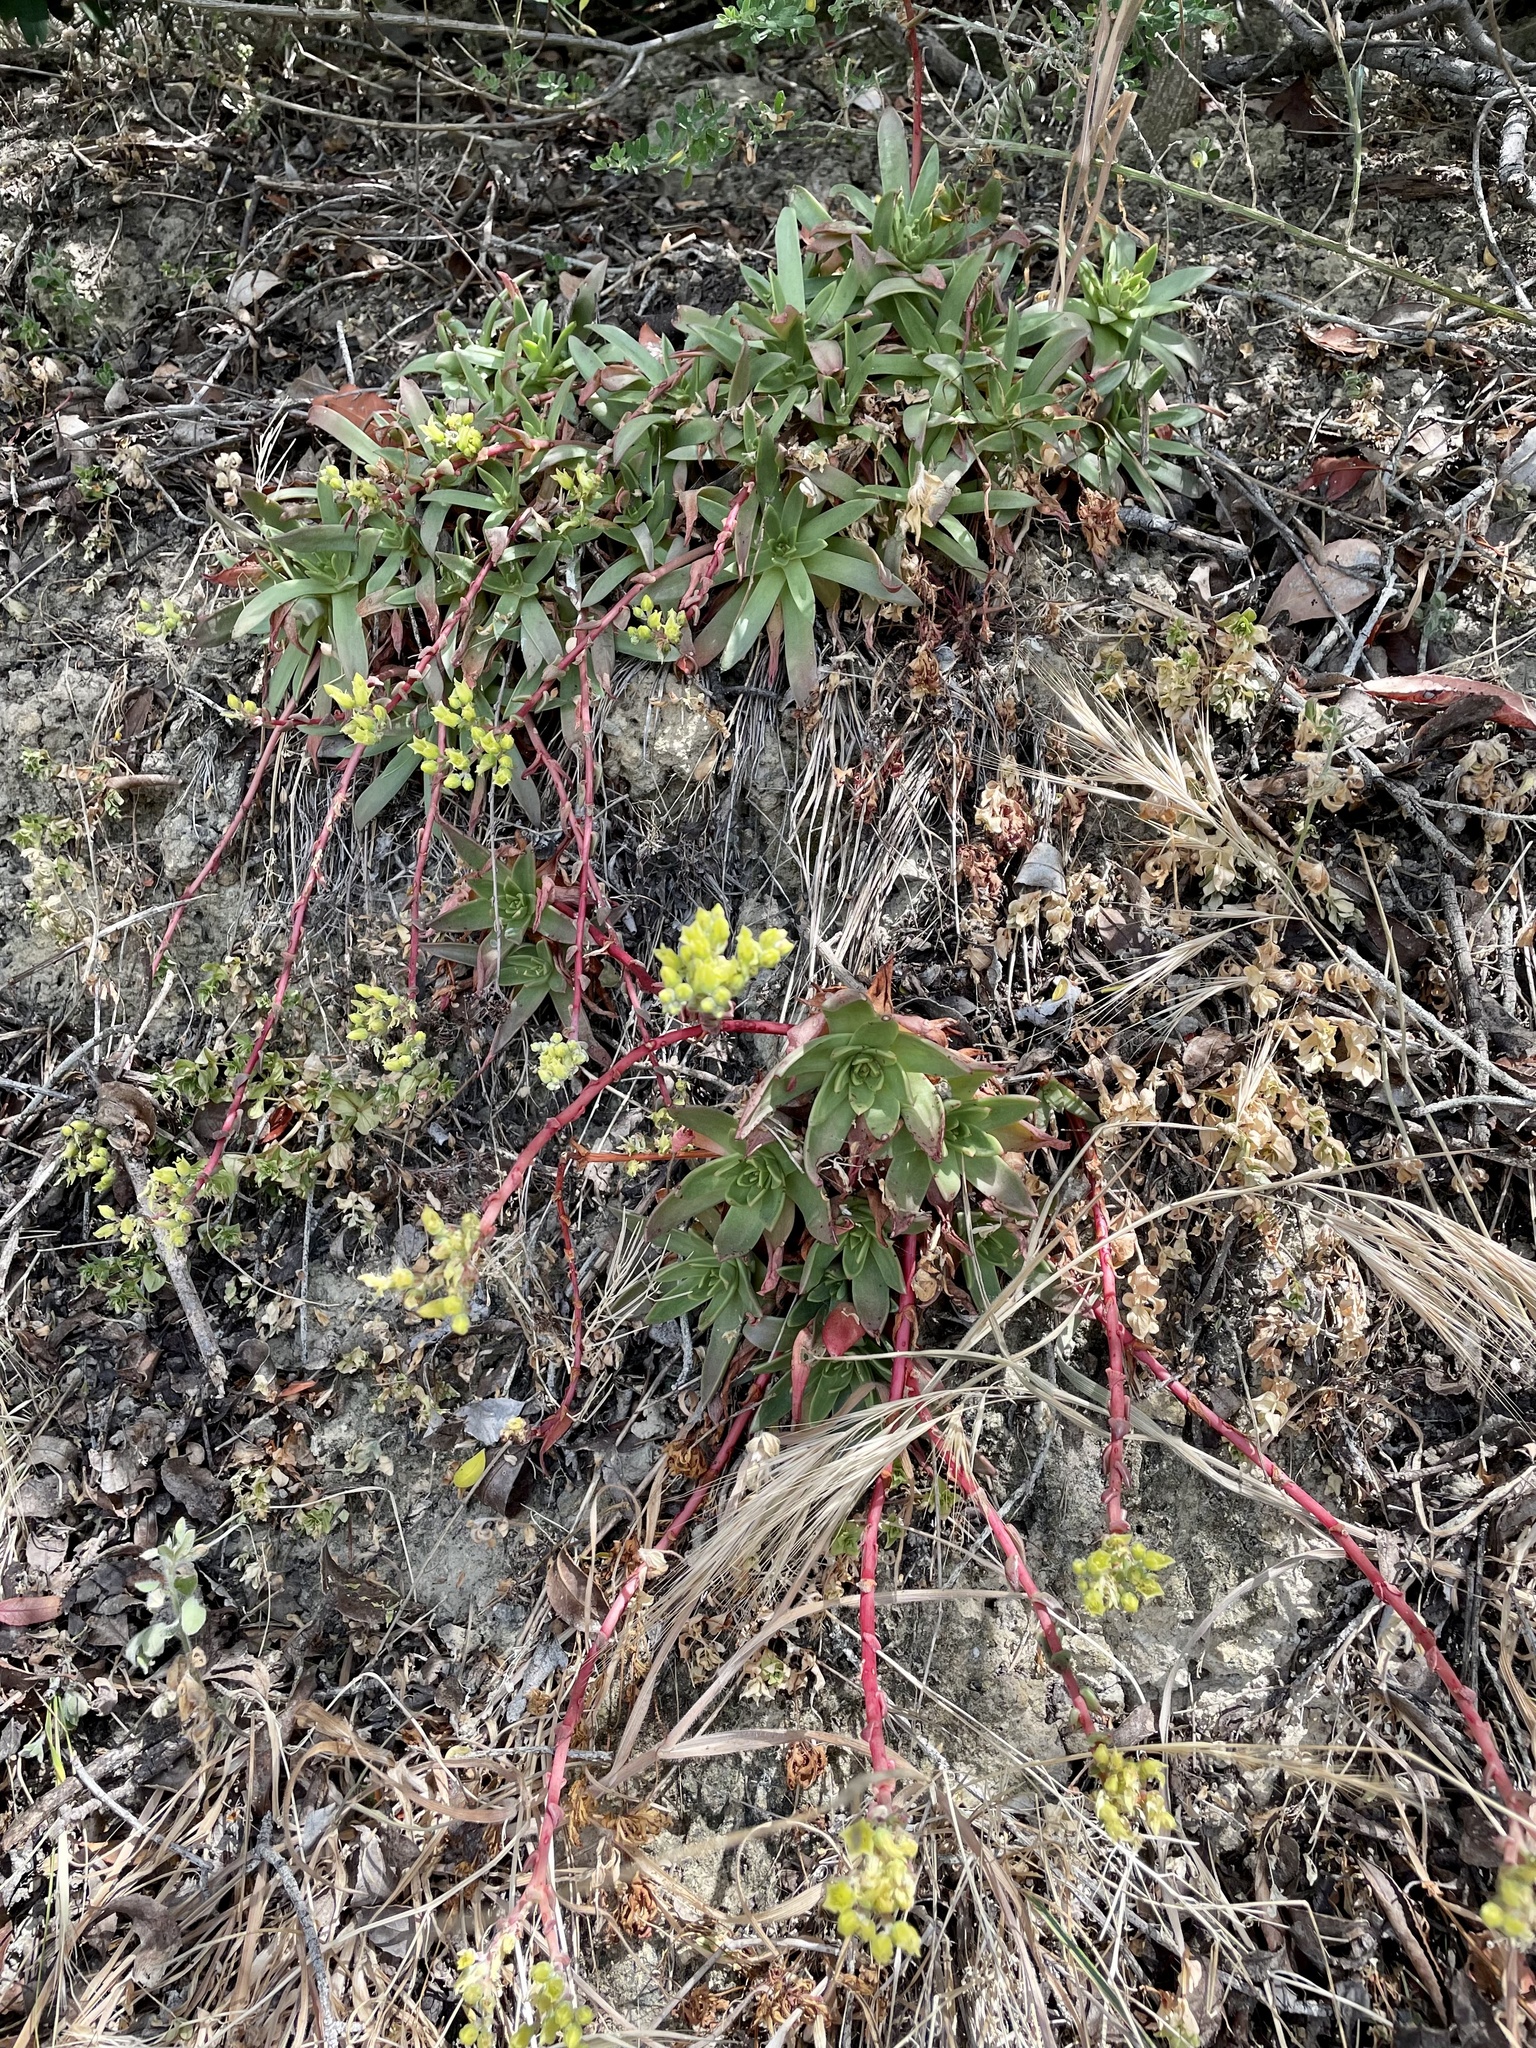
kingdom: Plantae
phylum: Tracheophyta
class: Magnoliopsida
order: Saxifragales
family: Crassulaceae
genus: Dudleya
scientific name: Dudleya farinosa
